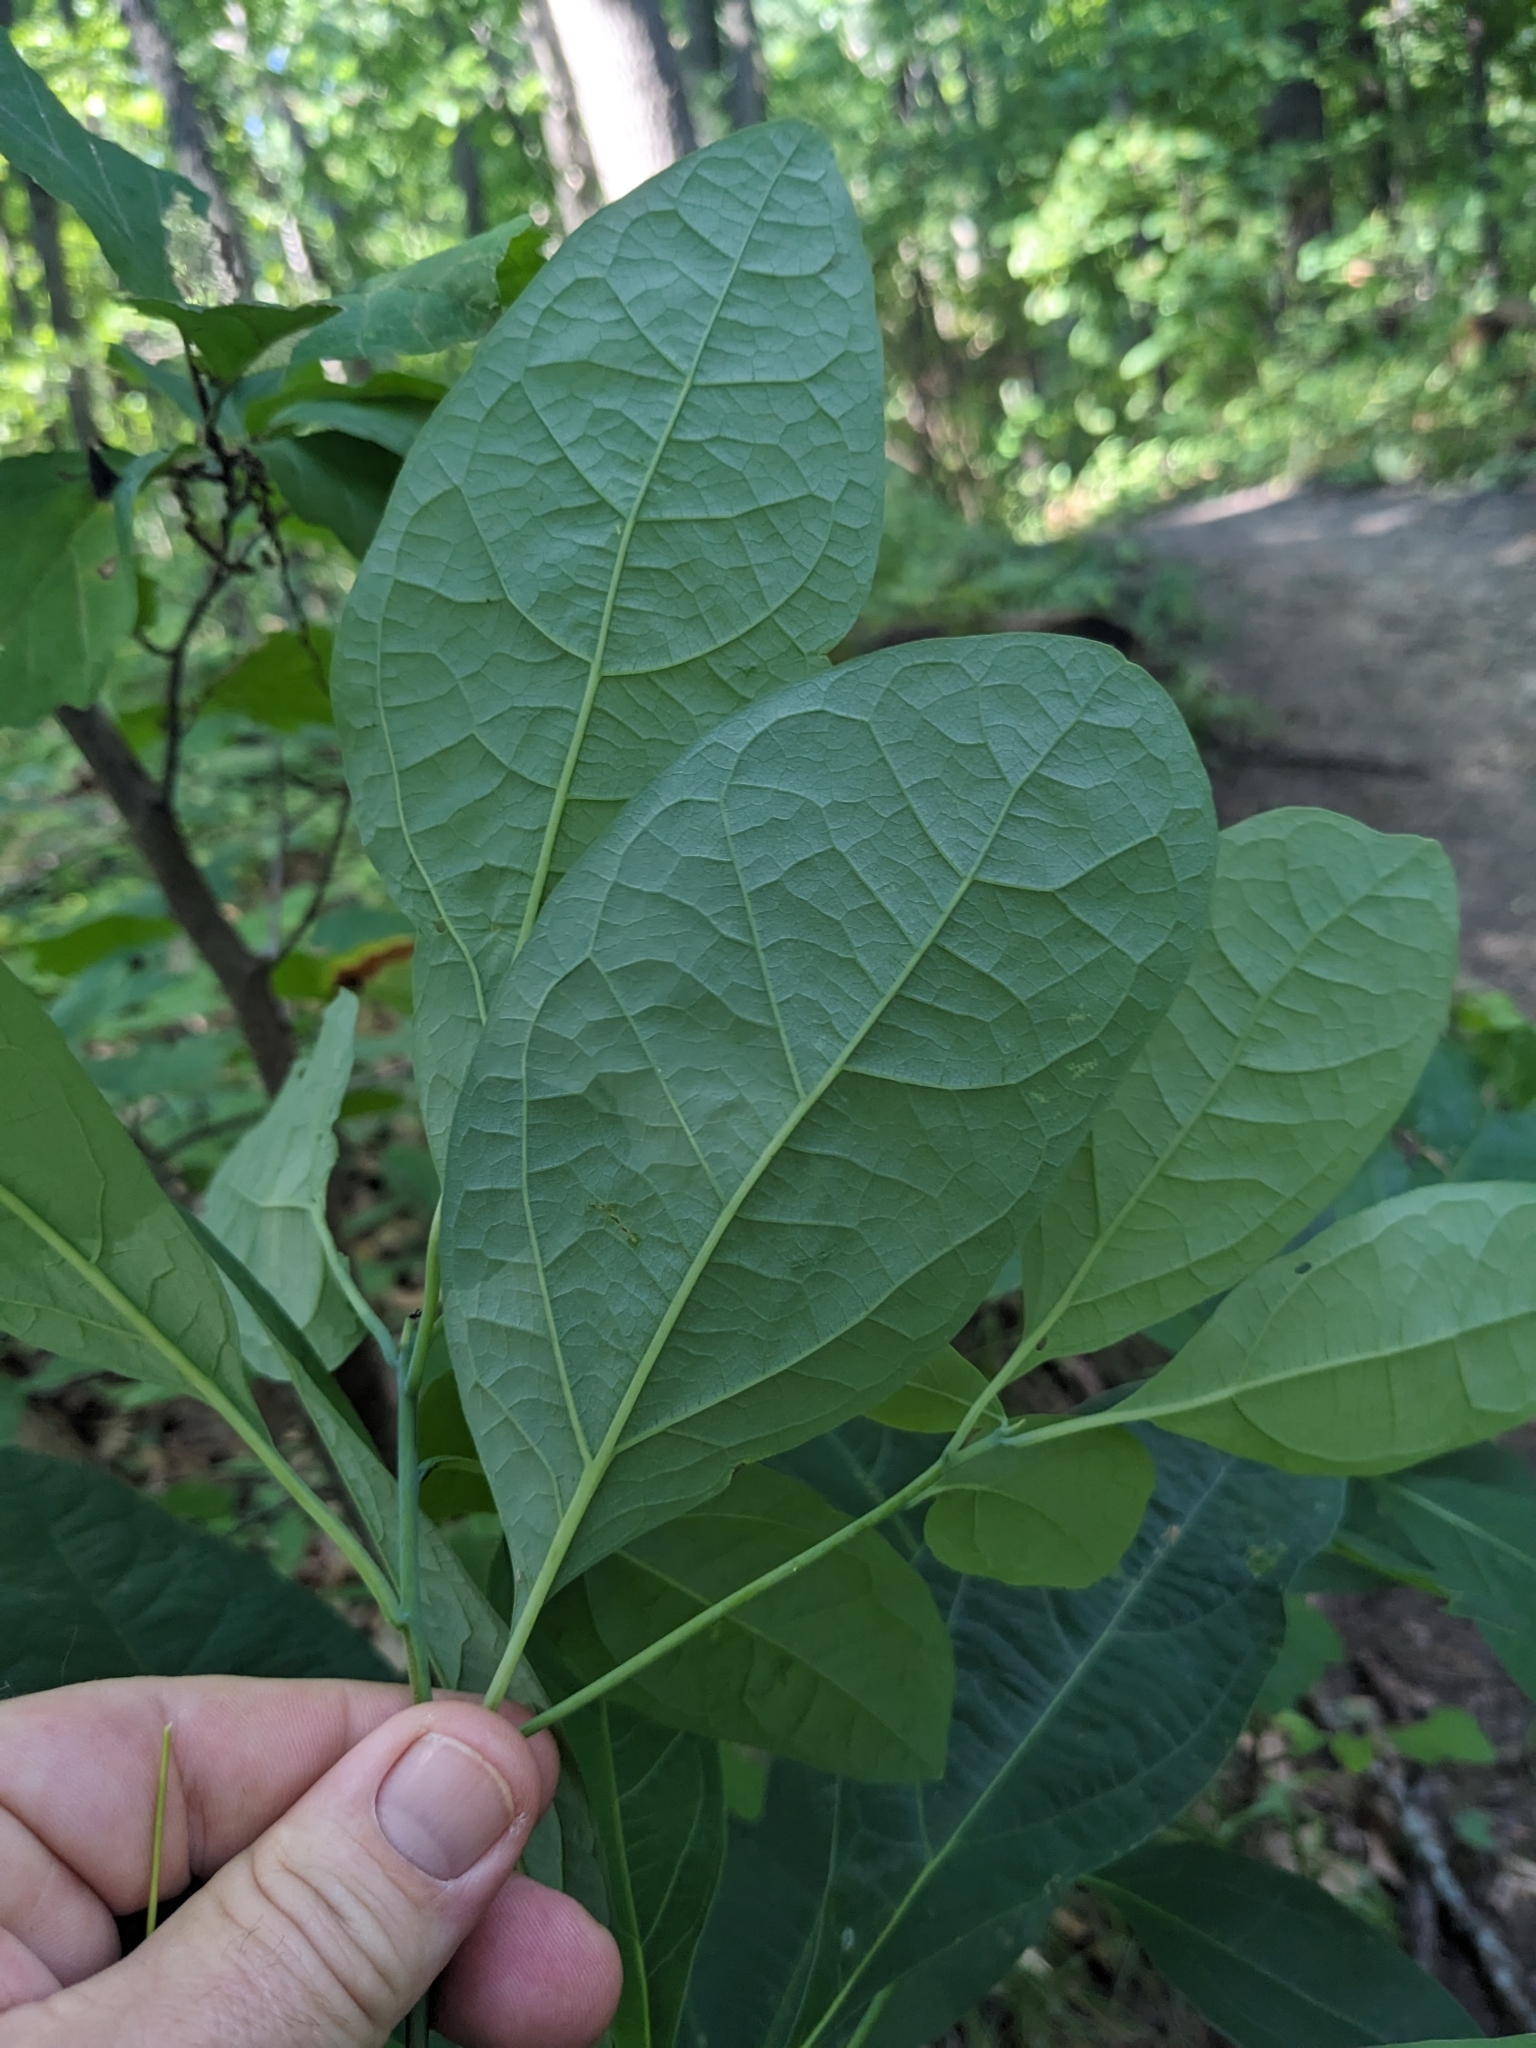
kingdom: Plantae
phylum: Tracheophyta
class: Magnoliopsida
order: Laurales
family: Lauraceae
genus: Sassafras
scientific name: Sassafras albidum
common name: Sassafras
